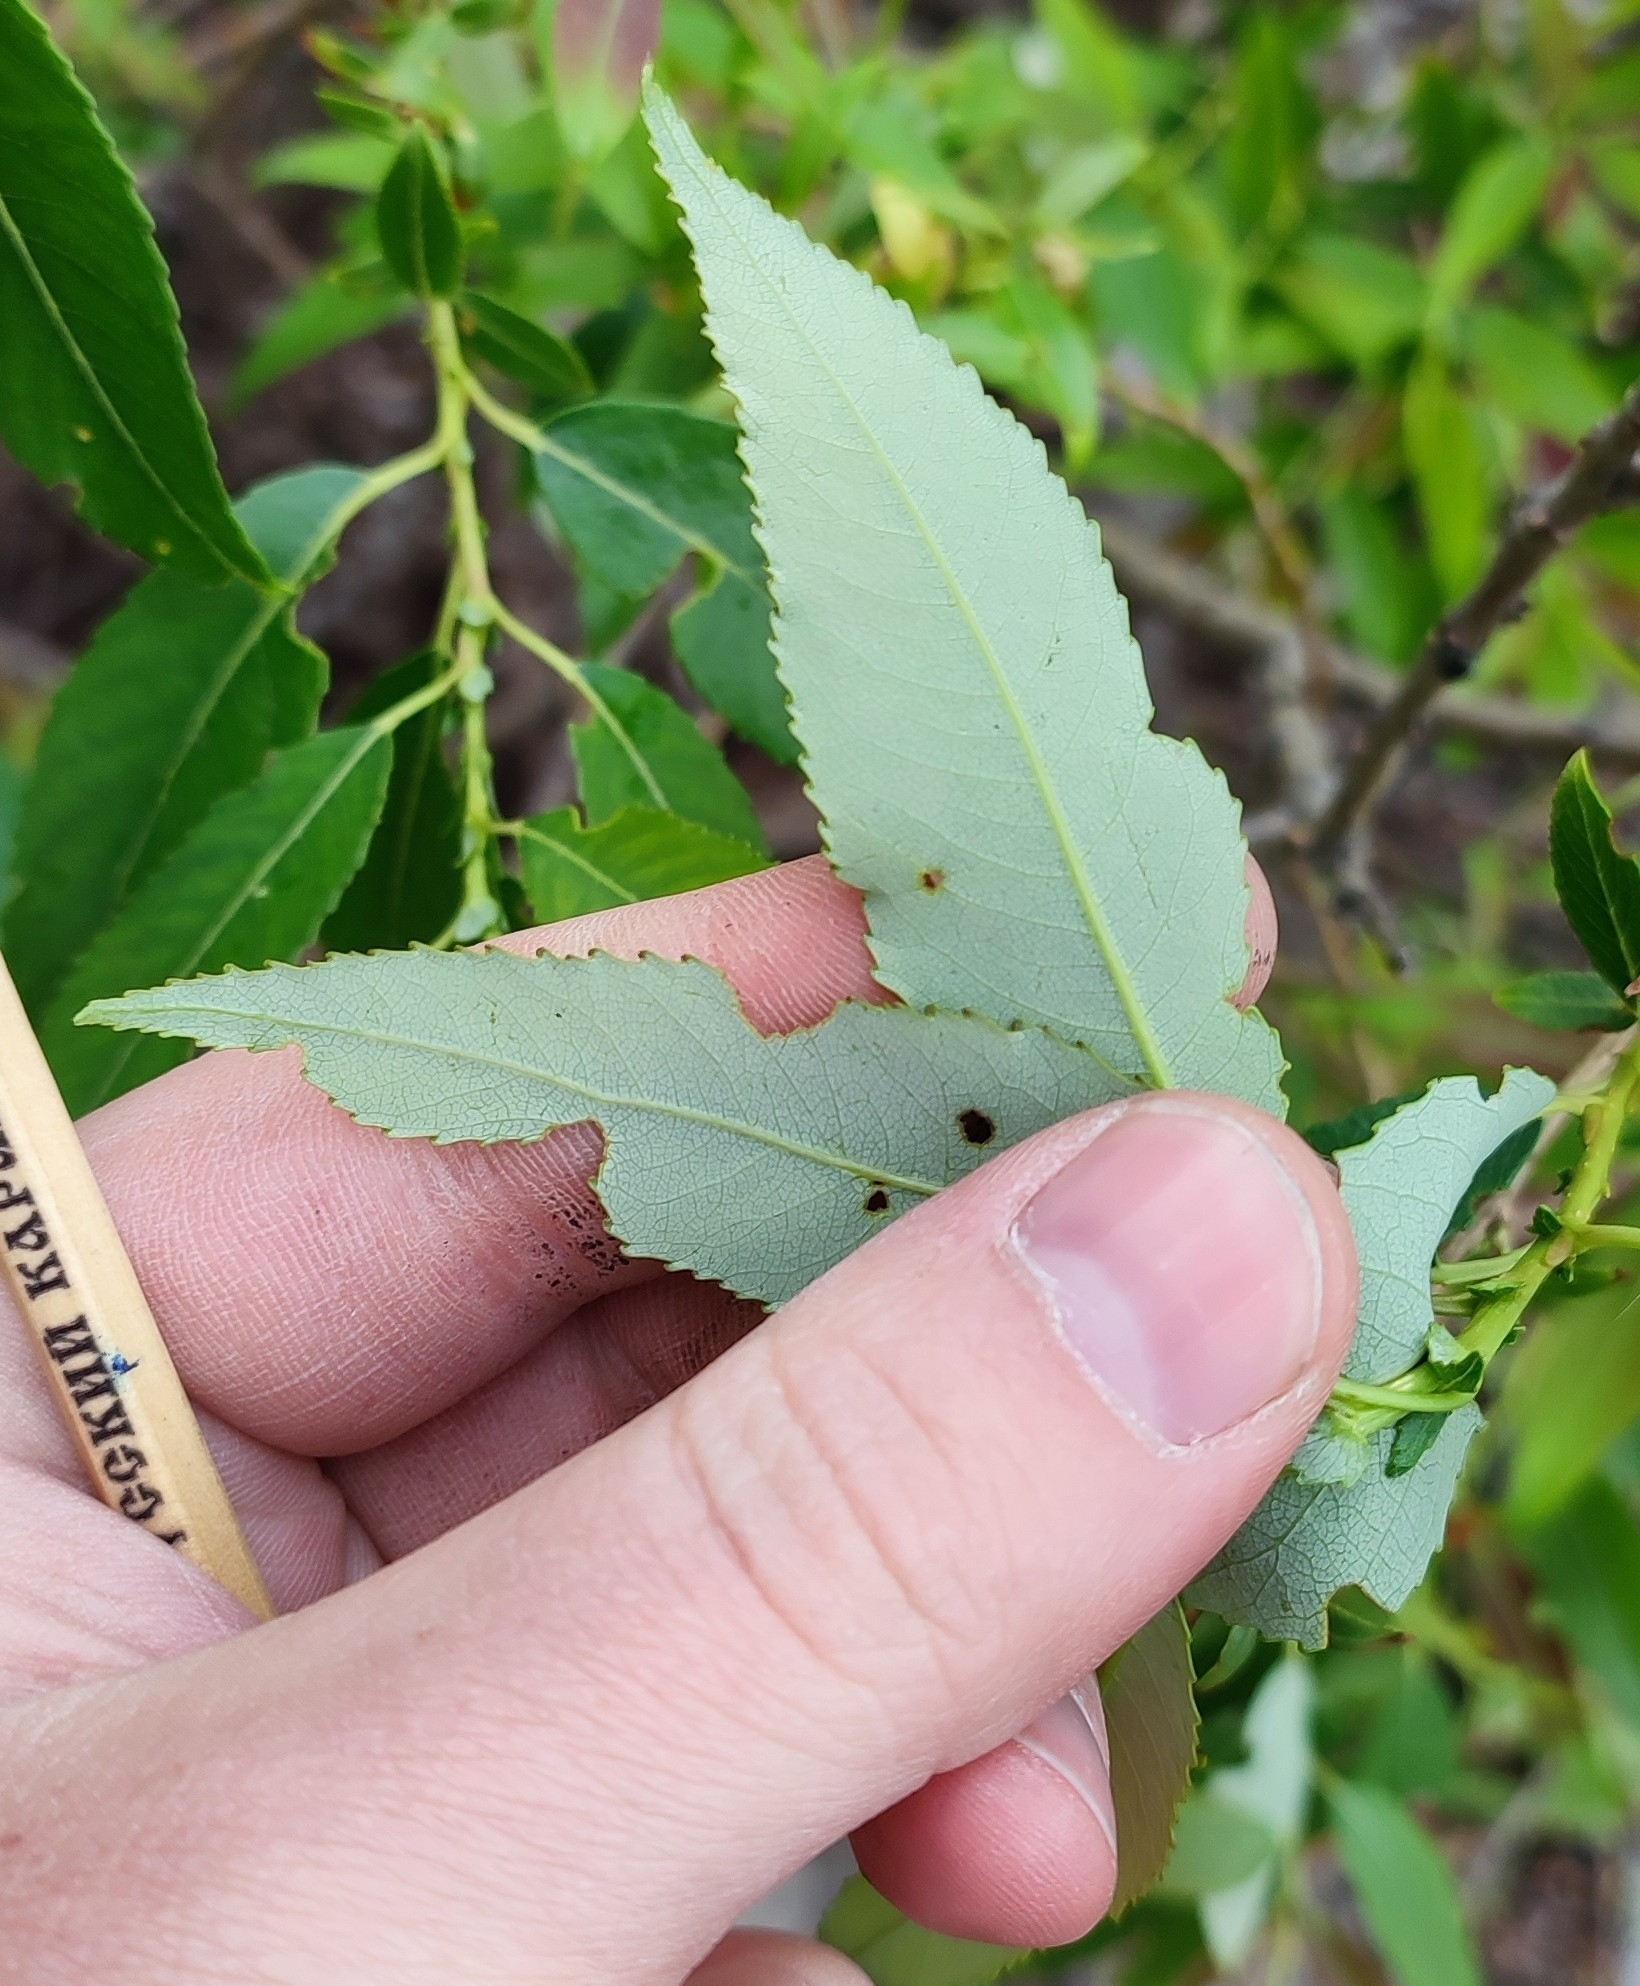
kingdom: Plantae
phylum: Tracheophyta
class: Magnoliopsida
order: Malpighiales
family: Salicaceae
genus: Salix
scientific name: Salix triandra
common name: Almond willow
